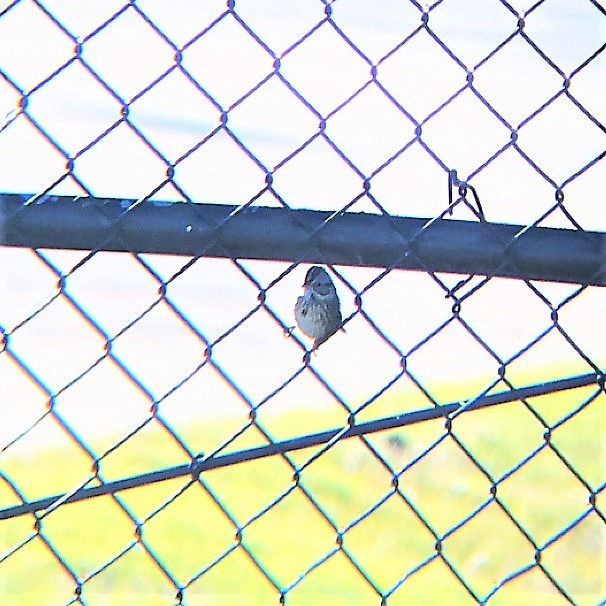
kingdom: Animalia
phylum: Chordata
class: Aves
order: Passeriformes
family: Passerellidae
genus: Melospiza
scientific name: Melospiza lincolnii
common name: Lincoln's sparrow
